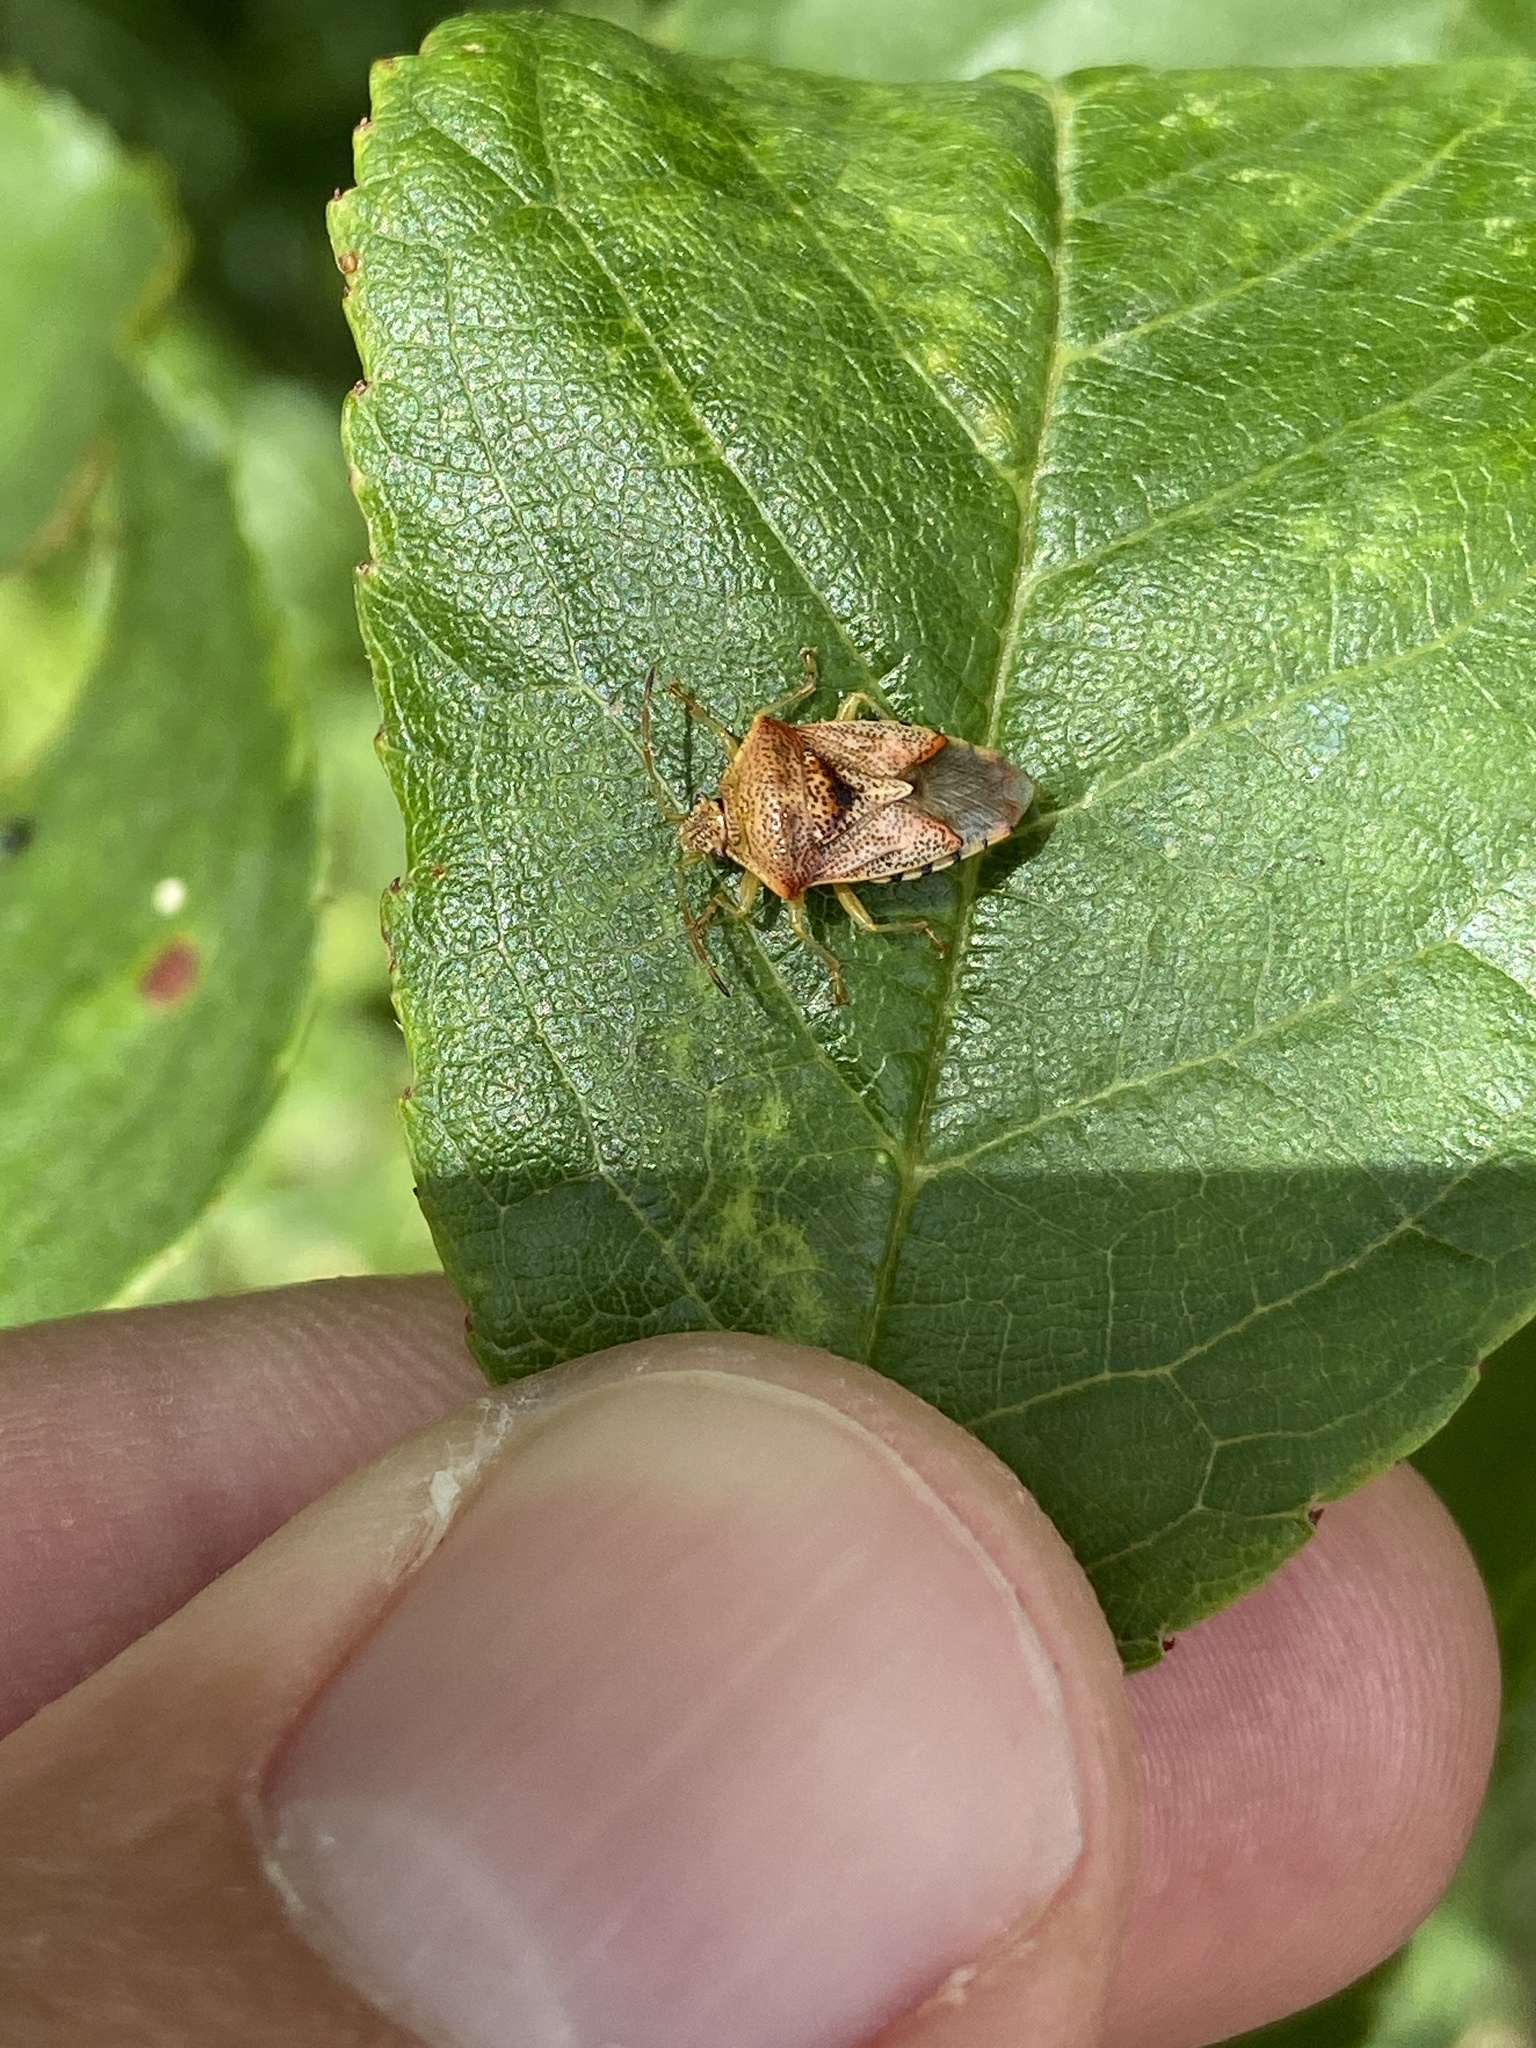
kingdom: Animalia
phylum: Arthropoda
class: Insecta
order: Hemiptera
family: Acanthosomatidae
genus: Elasmucha
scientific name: Elasmucha grisea
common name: Parent bug
